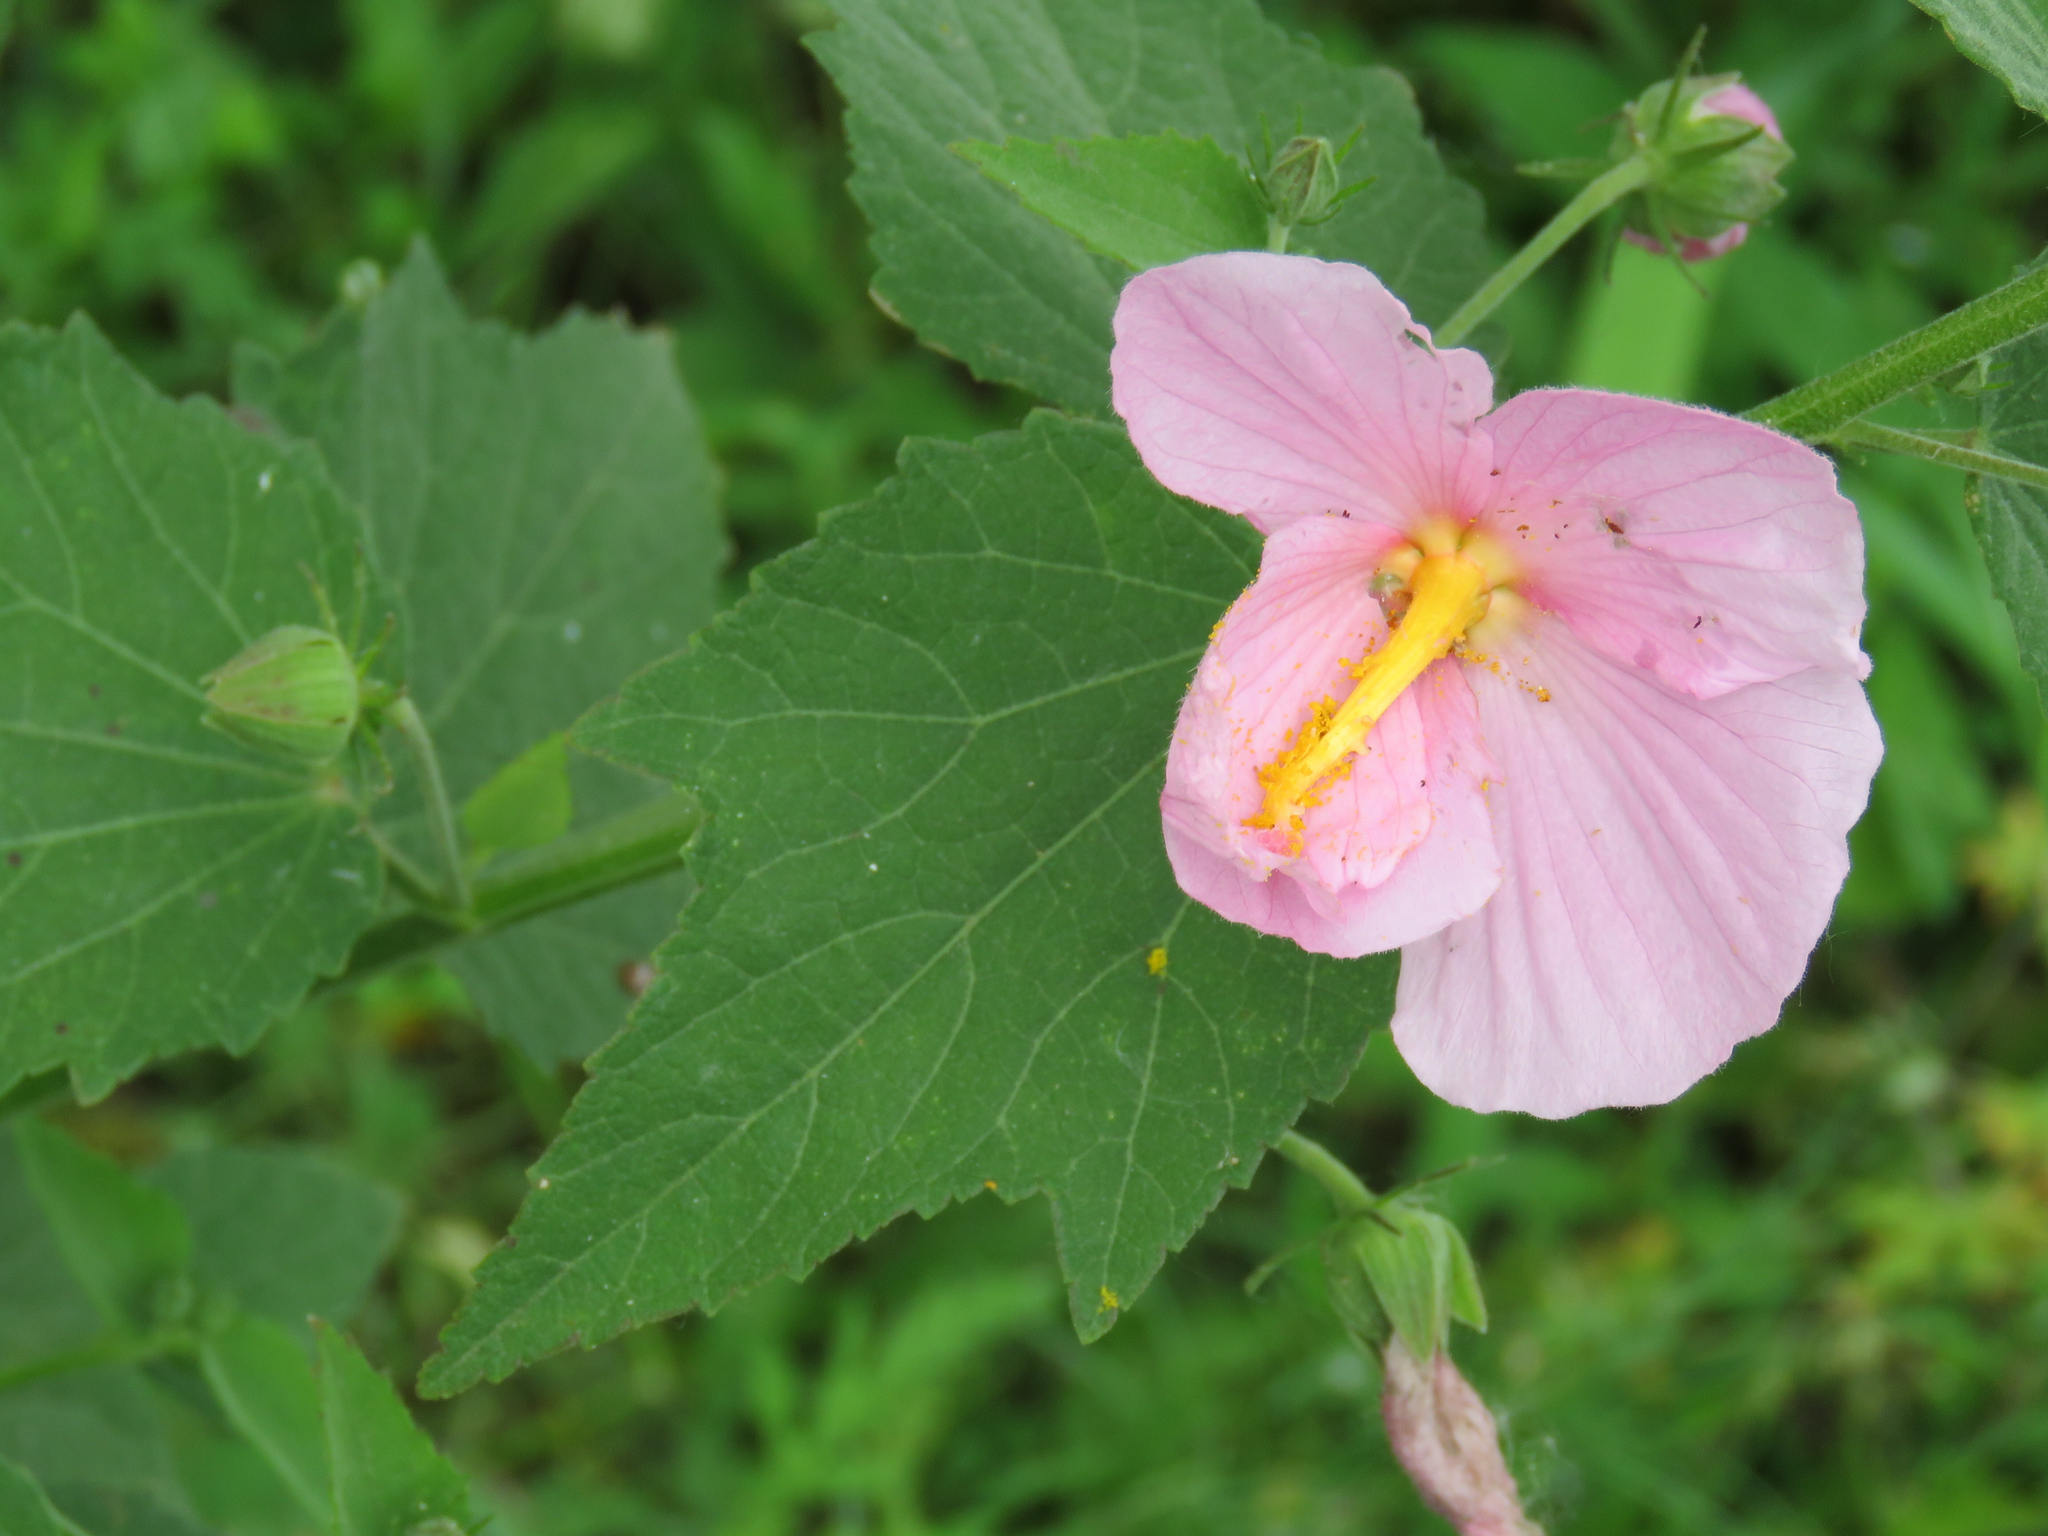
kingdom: Plantae
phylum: Tracheophyta
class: Magnoliopsida
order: Malvales
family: Malvaceae
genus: Kosteletzkya
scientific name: Kosteletzkya pentacarpos
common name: Virginia saltmarsh mallow
